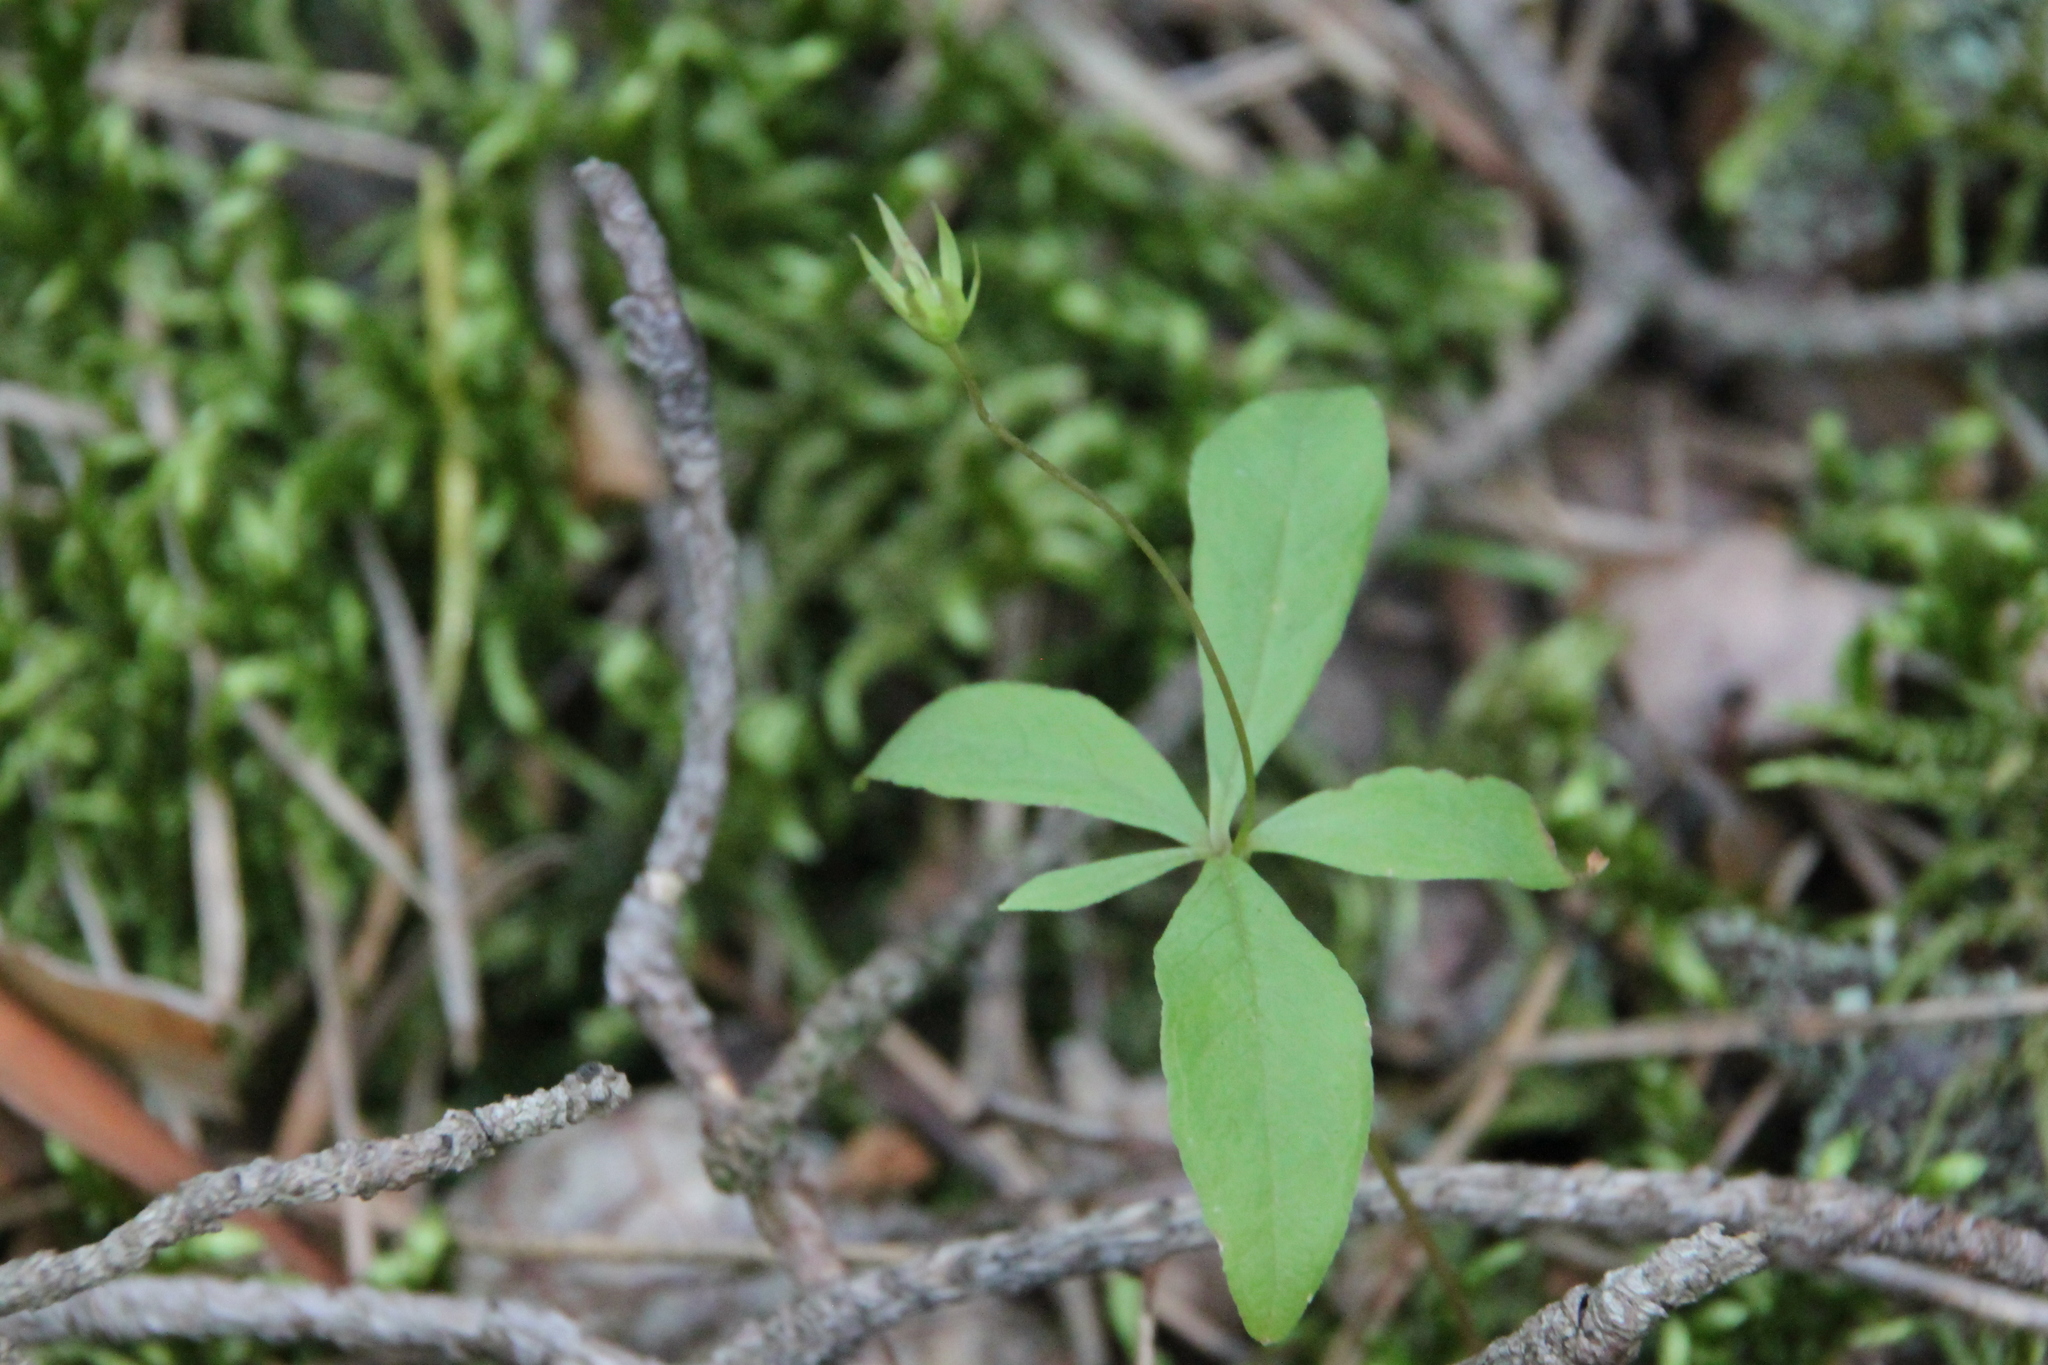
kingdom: Plantae
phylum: Tracheophyta
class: Magnoliopsida
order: Ericales
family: Primulaceae
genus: Lysimachia
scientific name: Lysimachia europaea
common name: Arctic starflower
